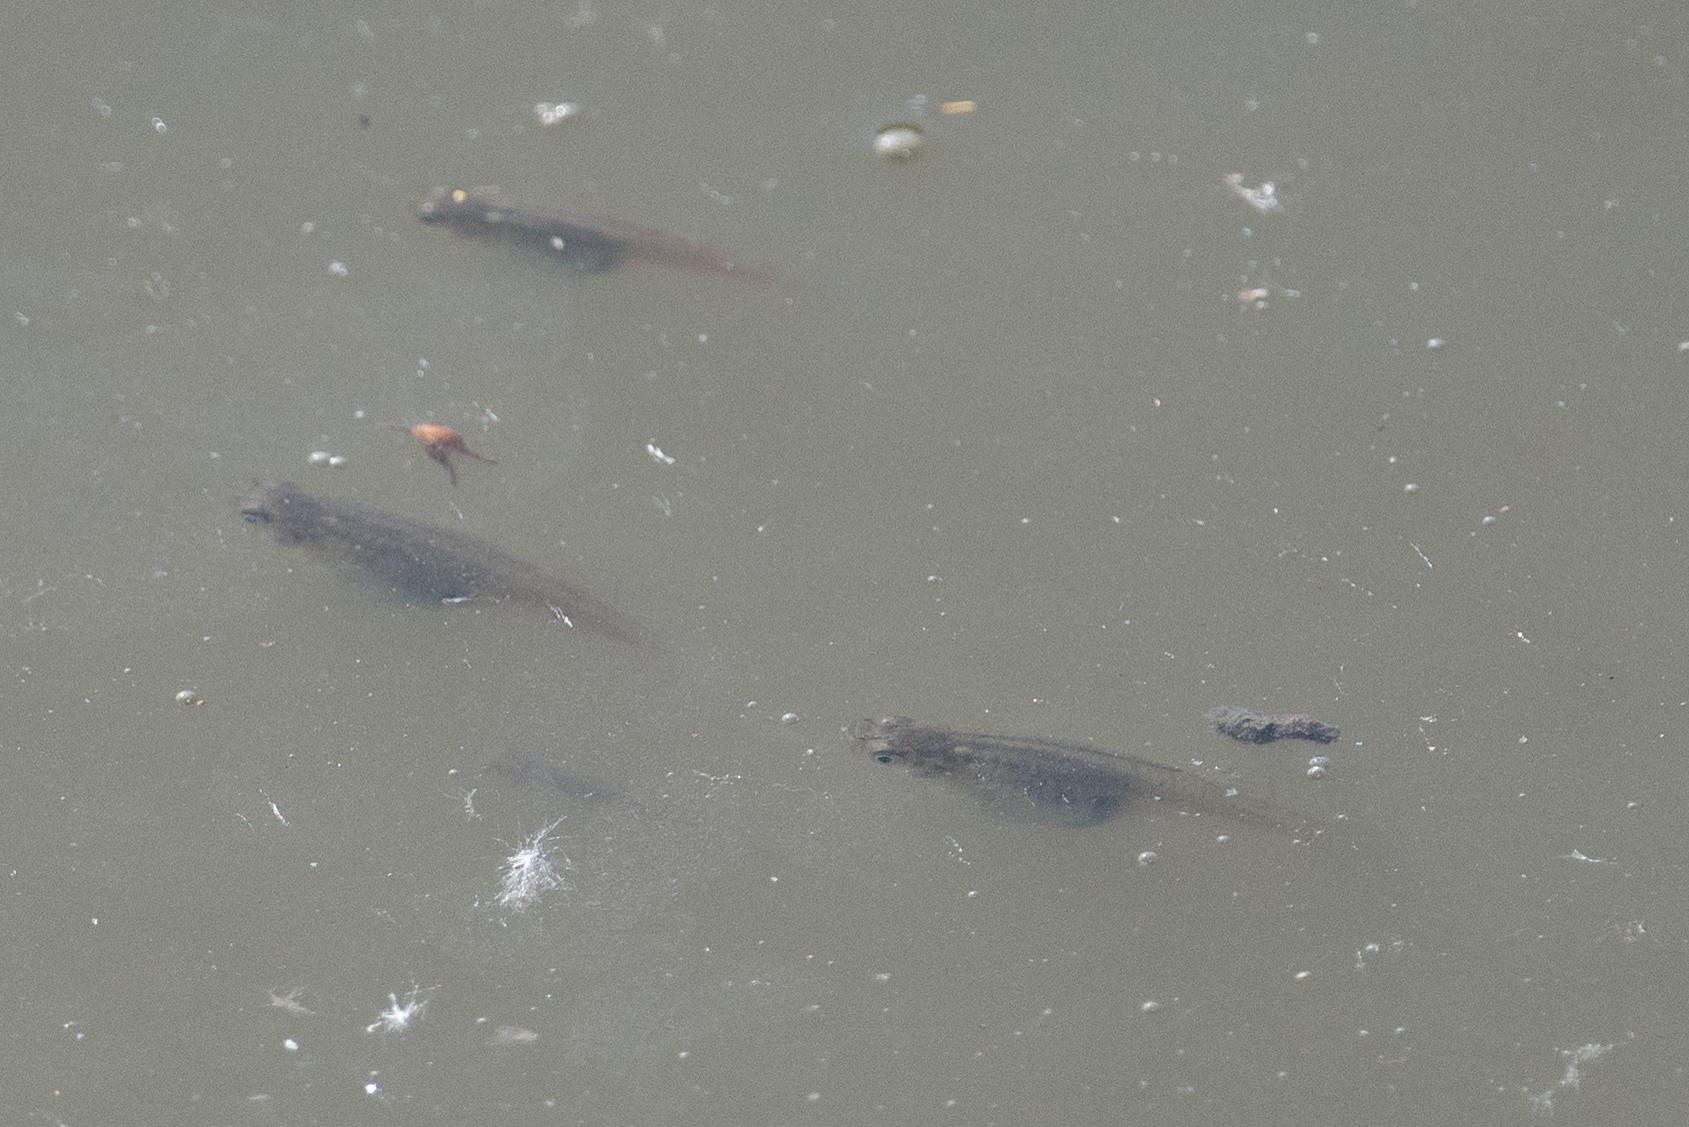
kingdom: Animalia
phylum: Chordata
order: Cyprinodontiformes
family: Poeciliidae
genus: Gambusia
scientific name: Gambusia affinis
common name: Mosquitofish
